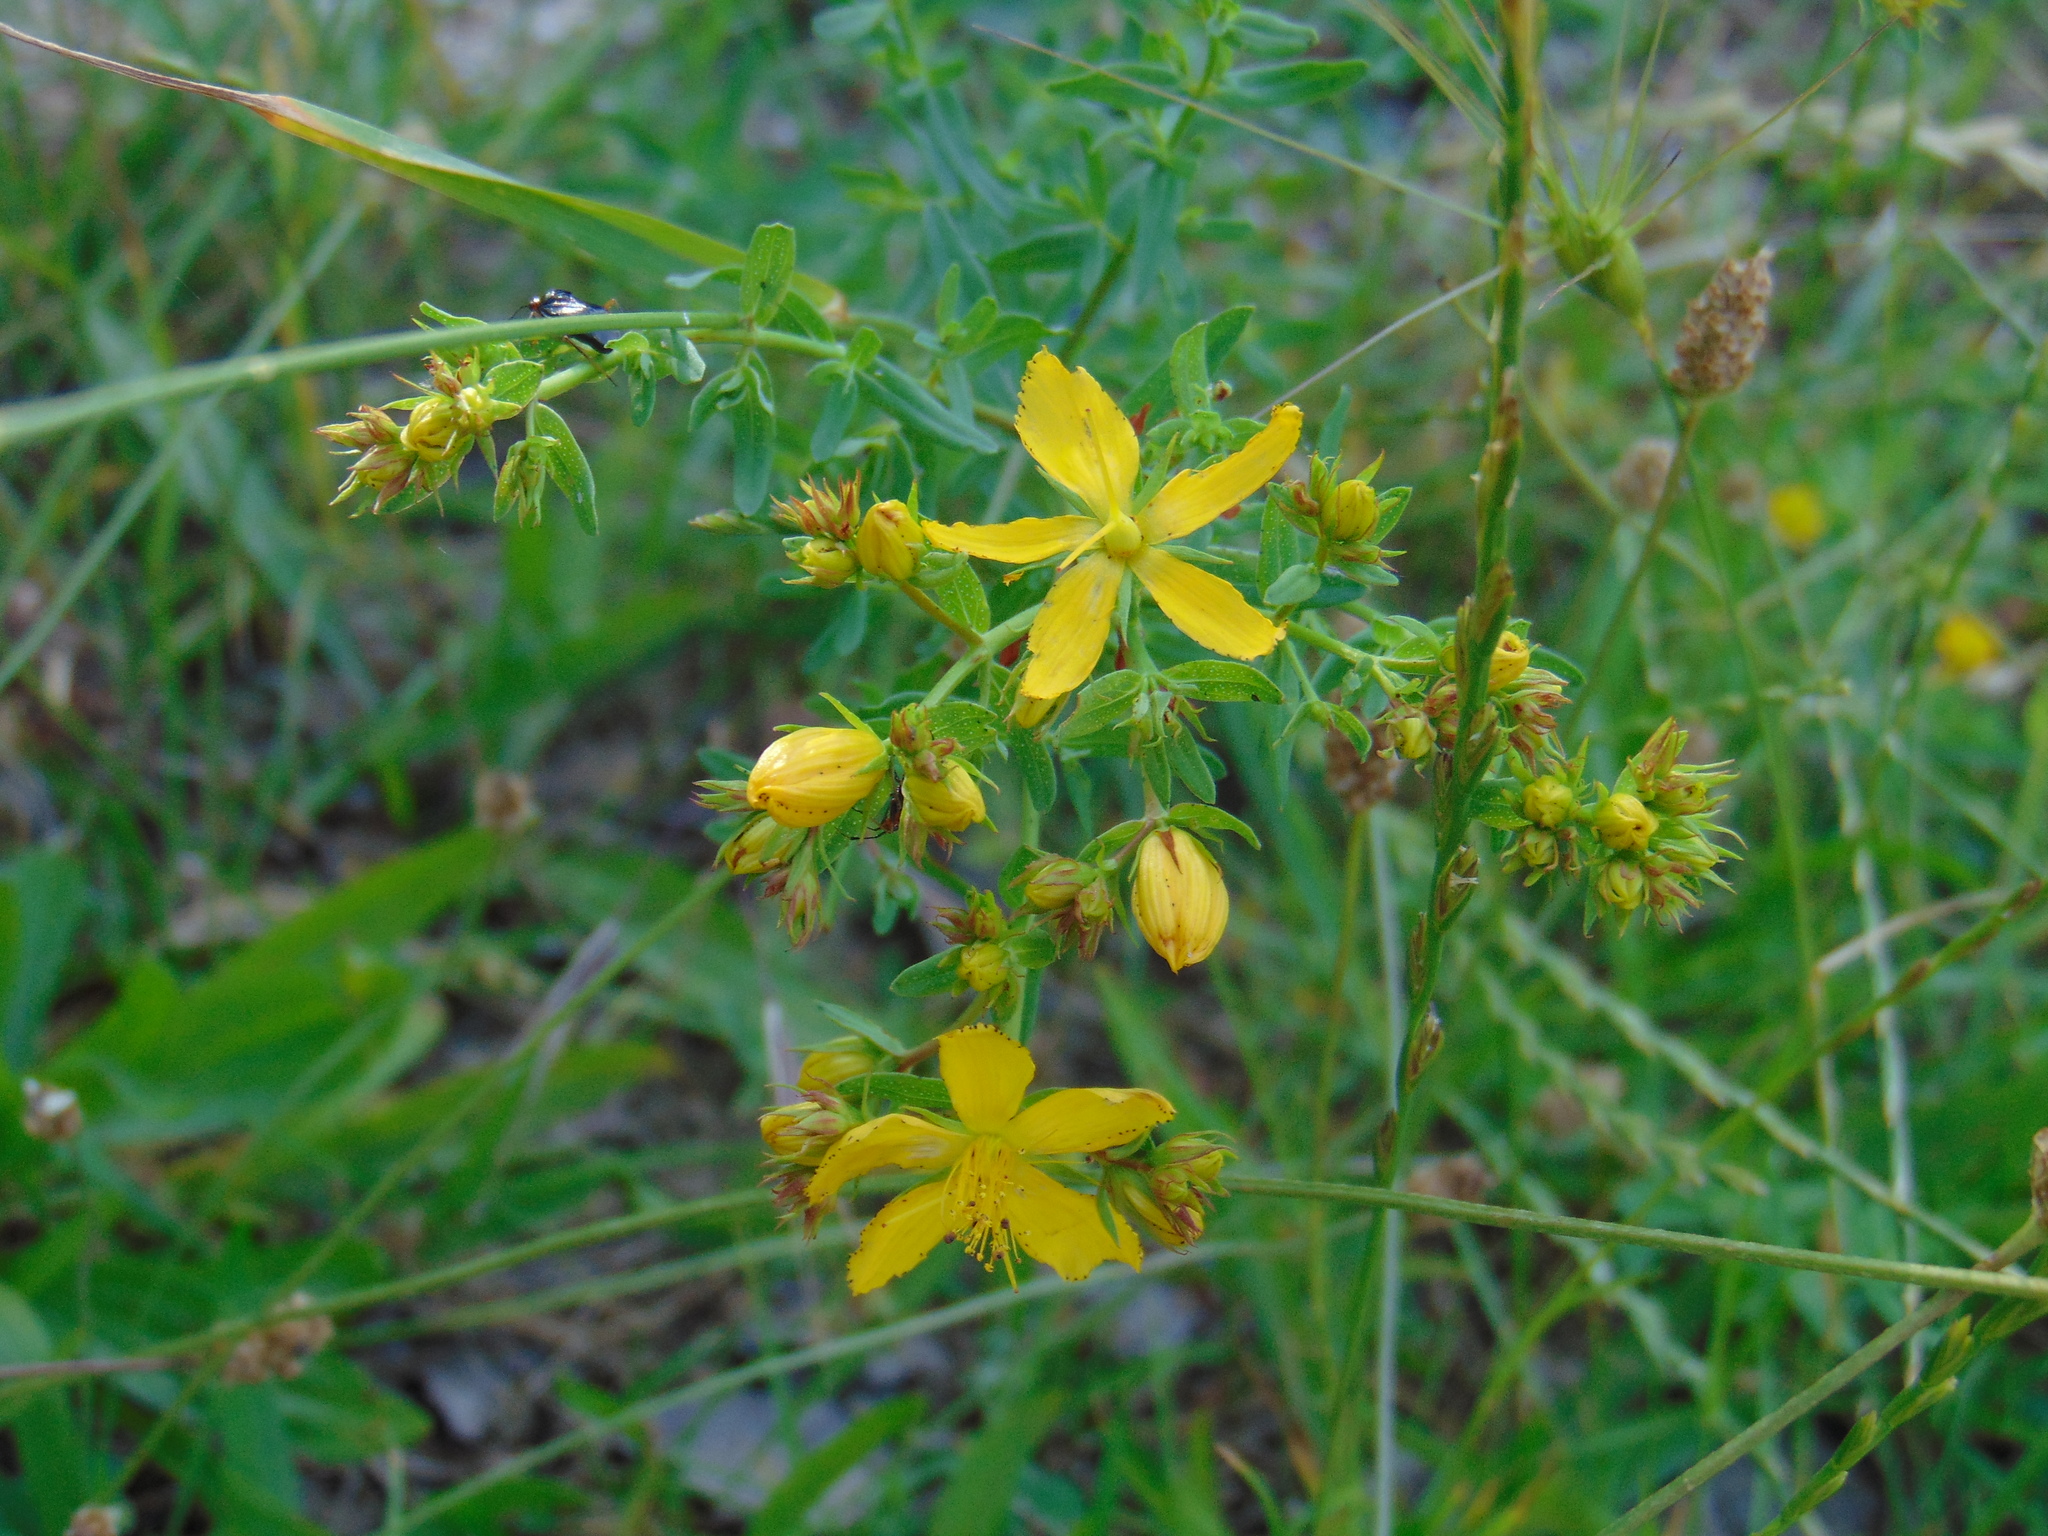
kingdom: Plantae
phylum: Tracheophyta
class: Magnoliopsida
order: Malpighiales
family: Hypericaceae
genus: Hypericum
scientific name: Hypericum perforatum
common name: Common st. johnswort
